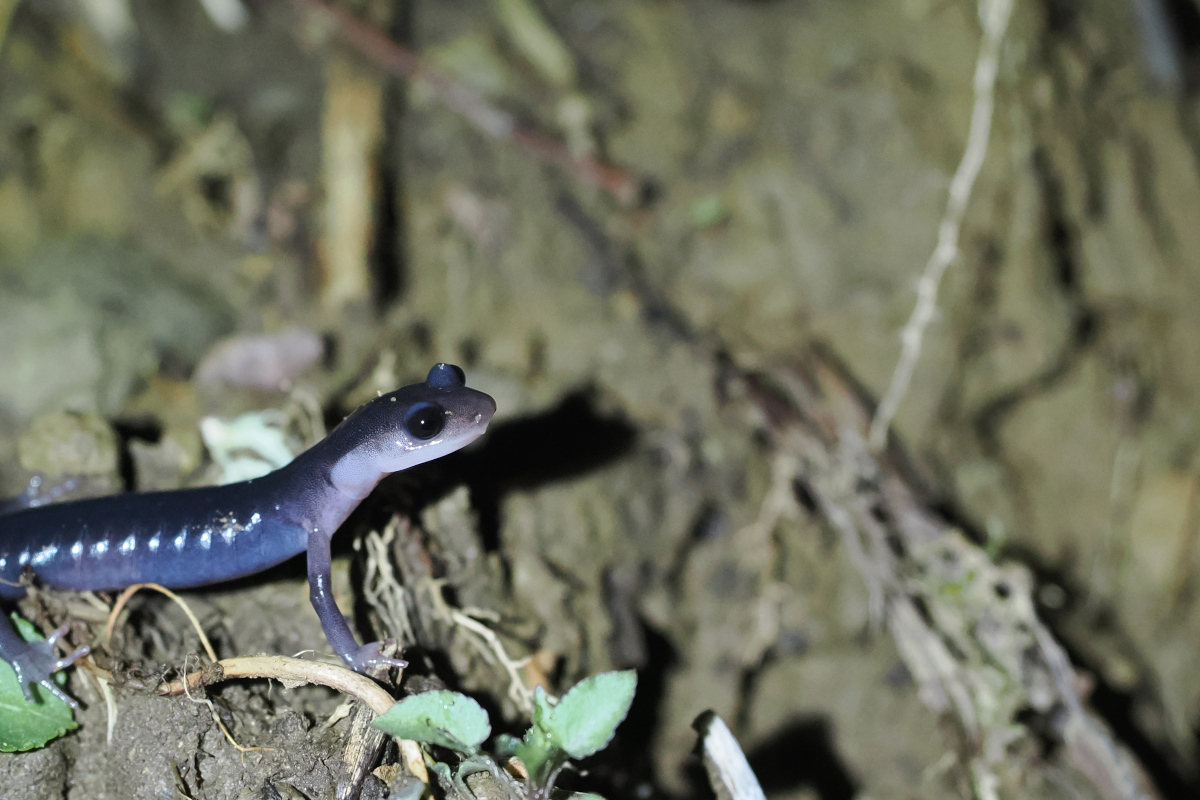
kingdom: Animalia
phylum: Chordata
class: Amphibia
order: Caudata
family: Plethodontidae
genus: Plethodon
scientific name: Plethodon montanus
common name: Northern gray-cheeked salamander
